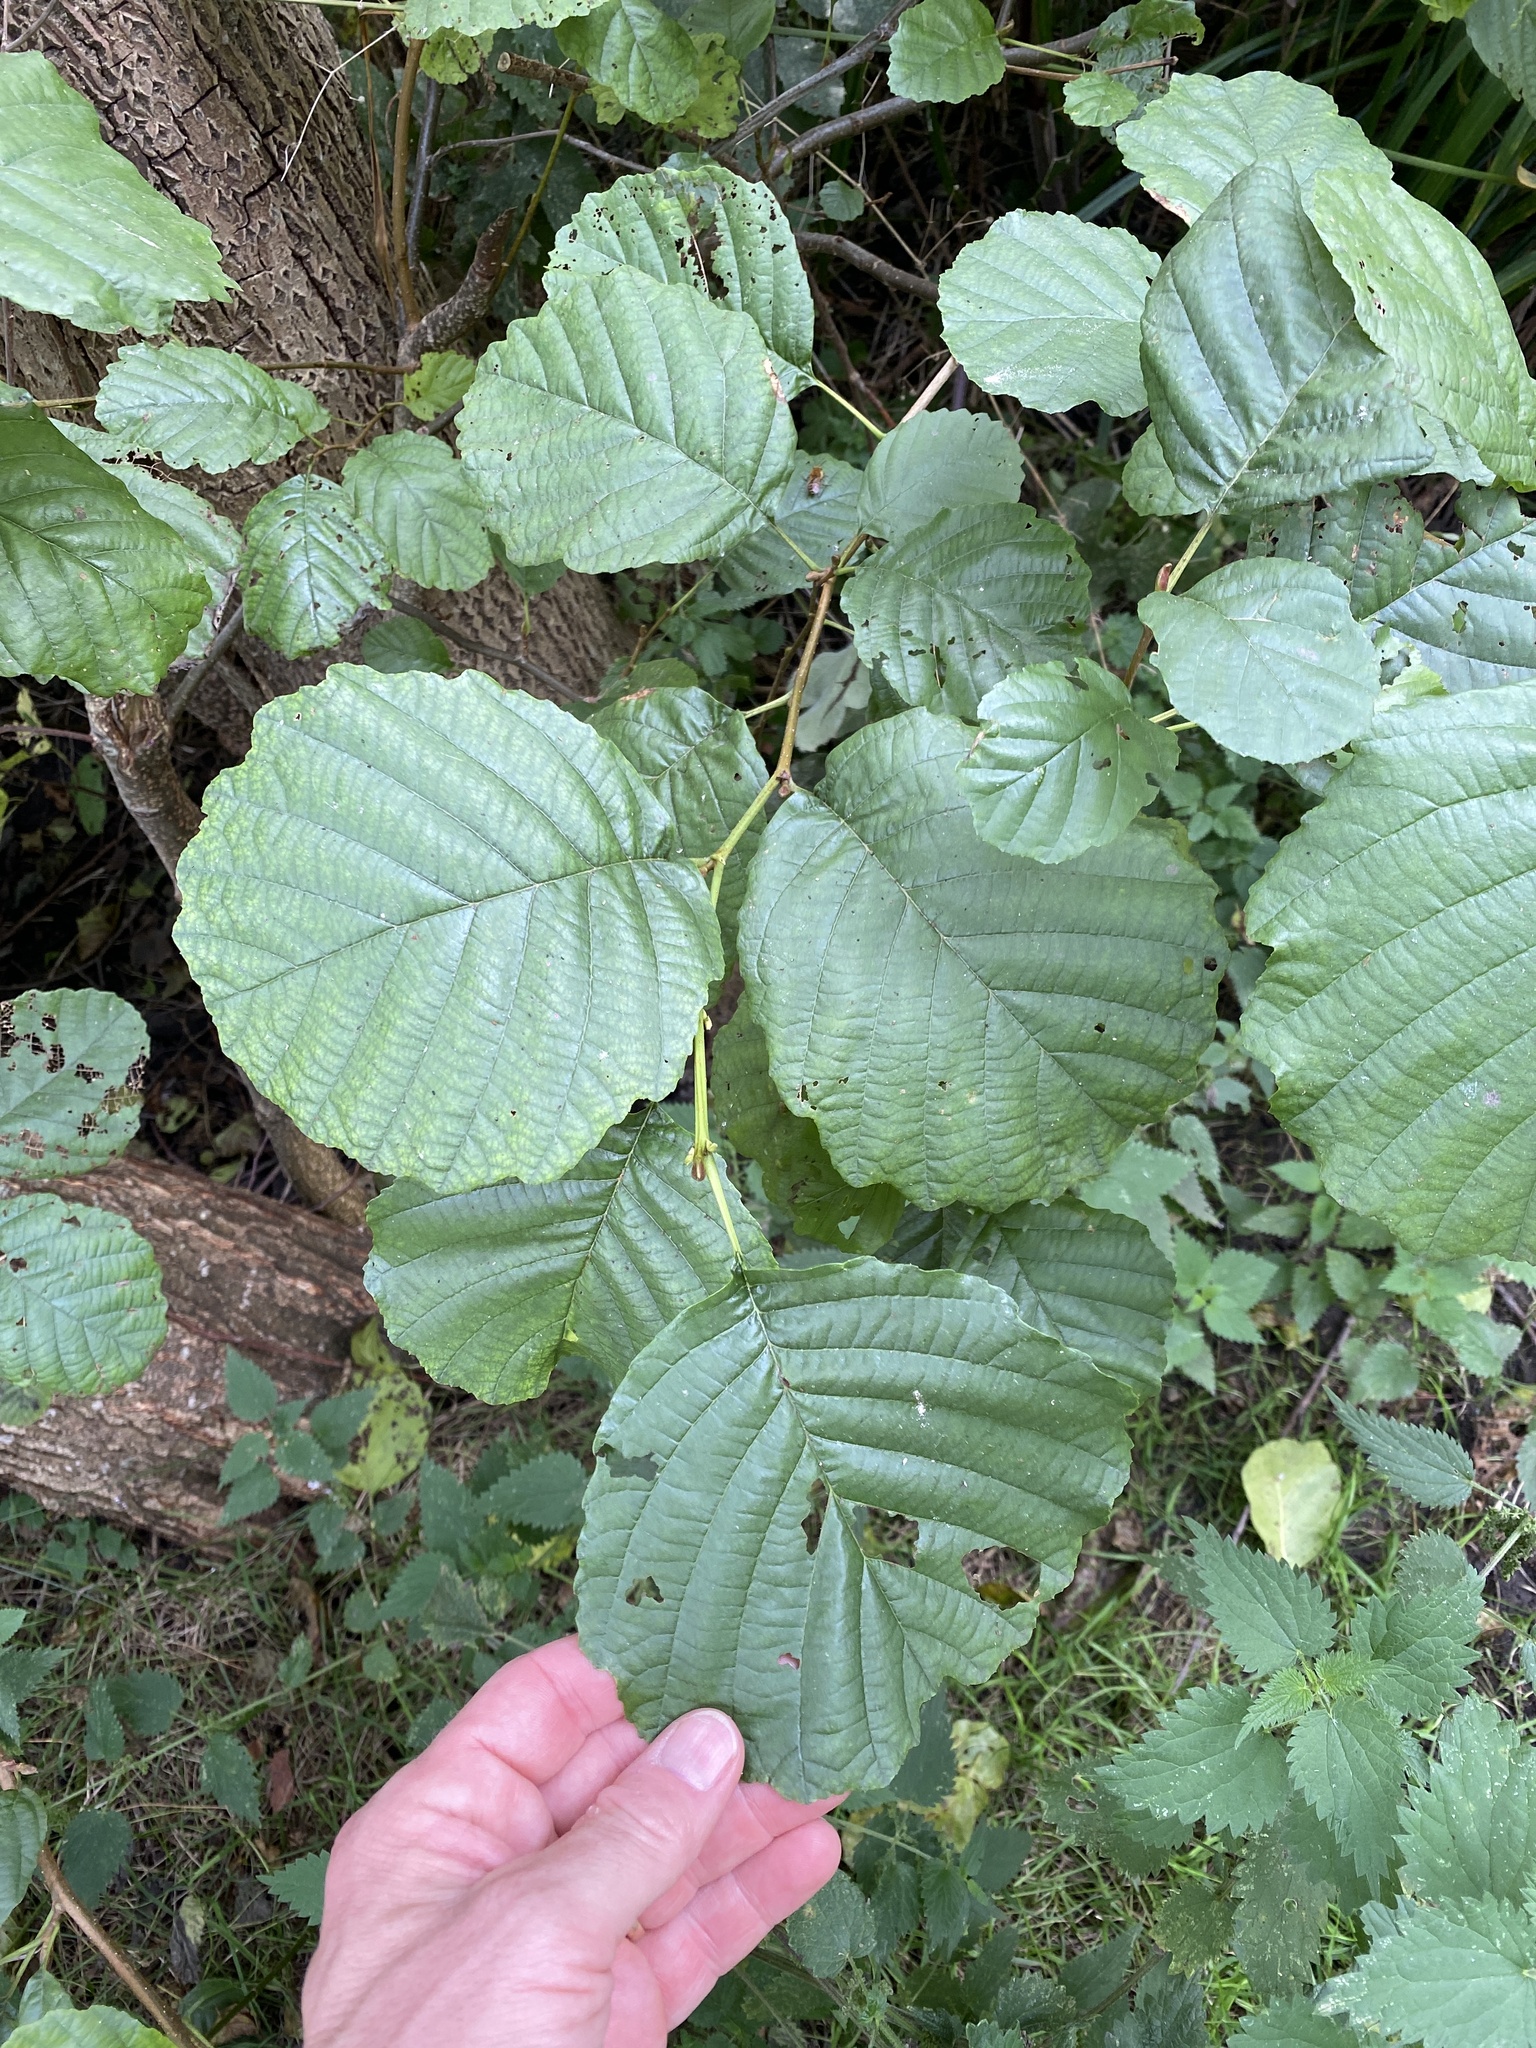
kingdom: Plantae
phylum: Tracheophyta
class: Magnoliopsida
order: Fagales
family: Betulaceae
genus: Alnus
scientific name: Alnus glutinosa
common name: Black alder
